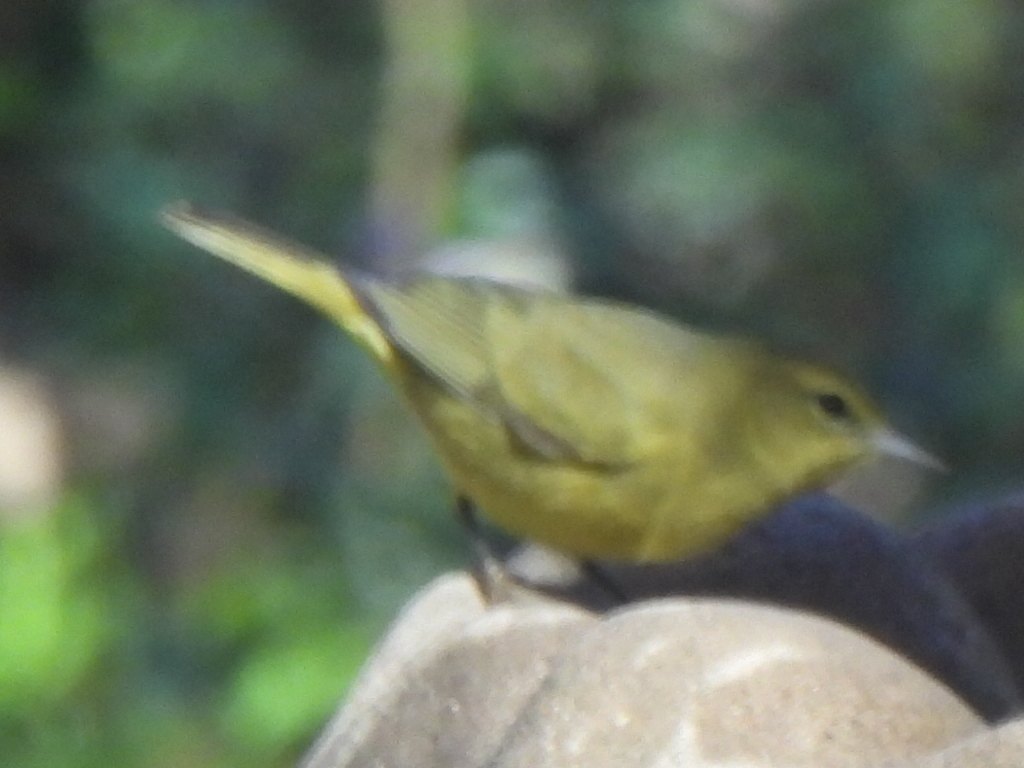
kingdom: Animalia
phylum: Chordata
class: Aves
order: Passeriformes
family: Parulidae
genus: Leiothlypis
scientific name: Leiothlypis celata
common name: Orange-crowned warbler
